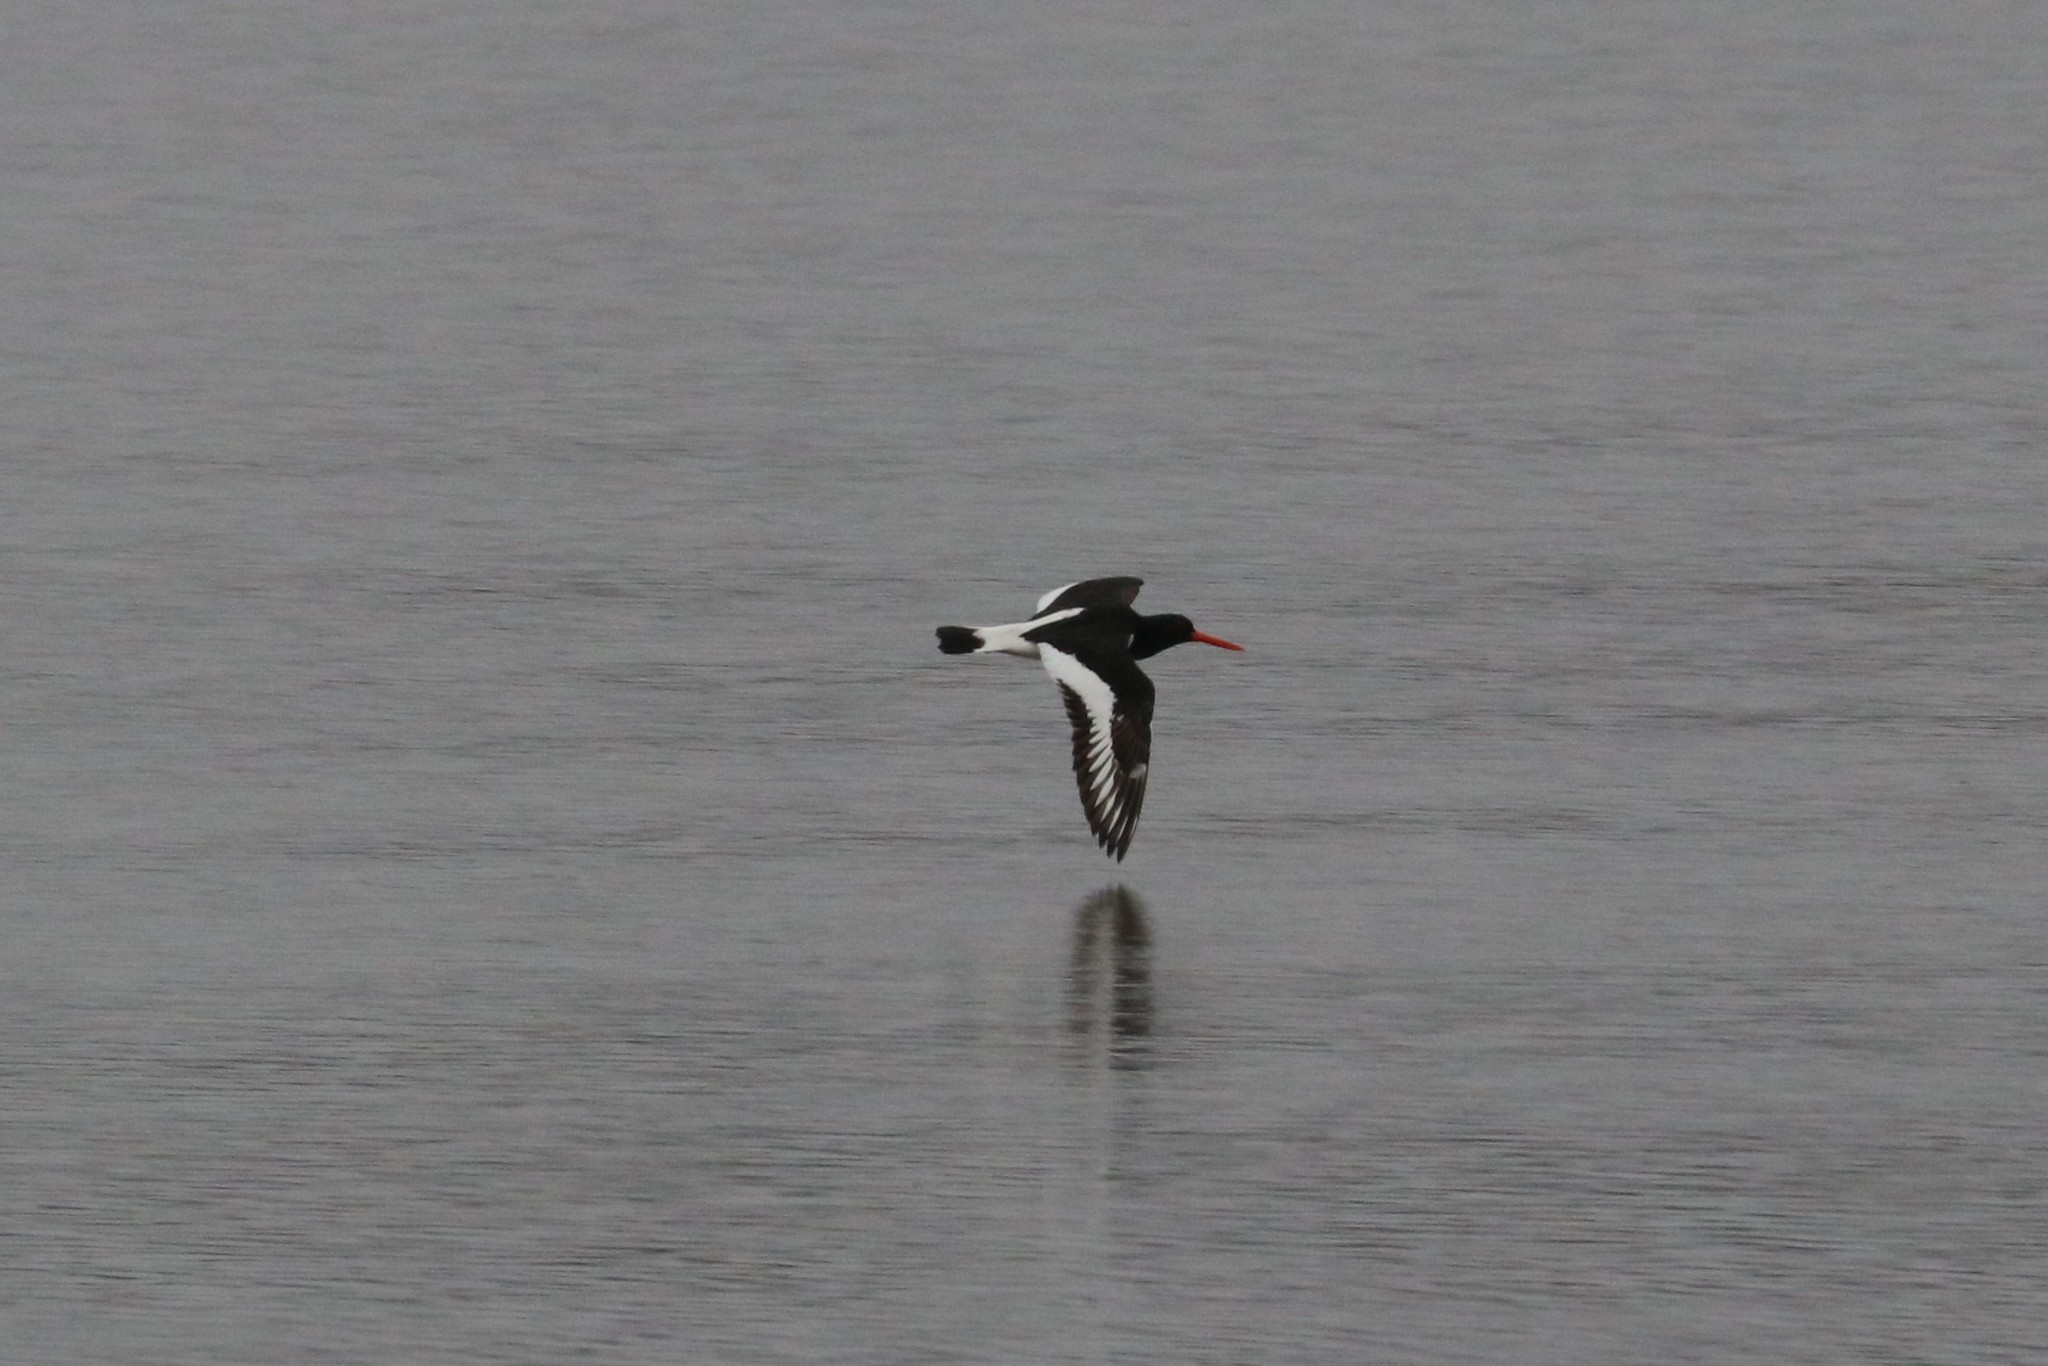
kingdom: Animalia
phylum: Chordata
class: Aves
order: Charadriiformes
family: Haematopodidae
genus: Haematopus
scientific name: Haematopus ostralegus
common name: Eurasian oystercatcher
